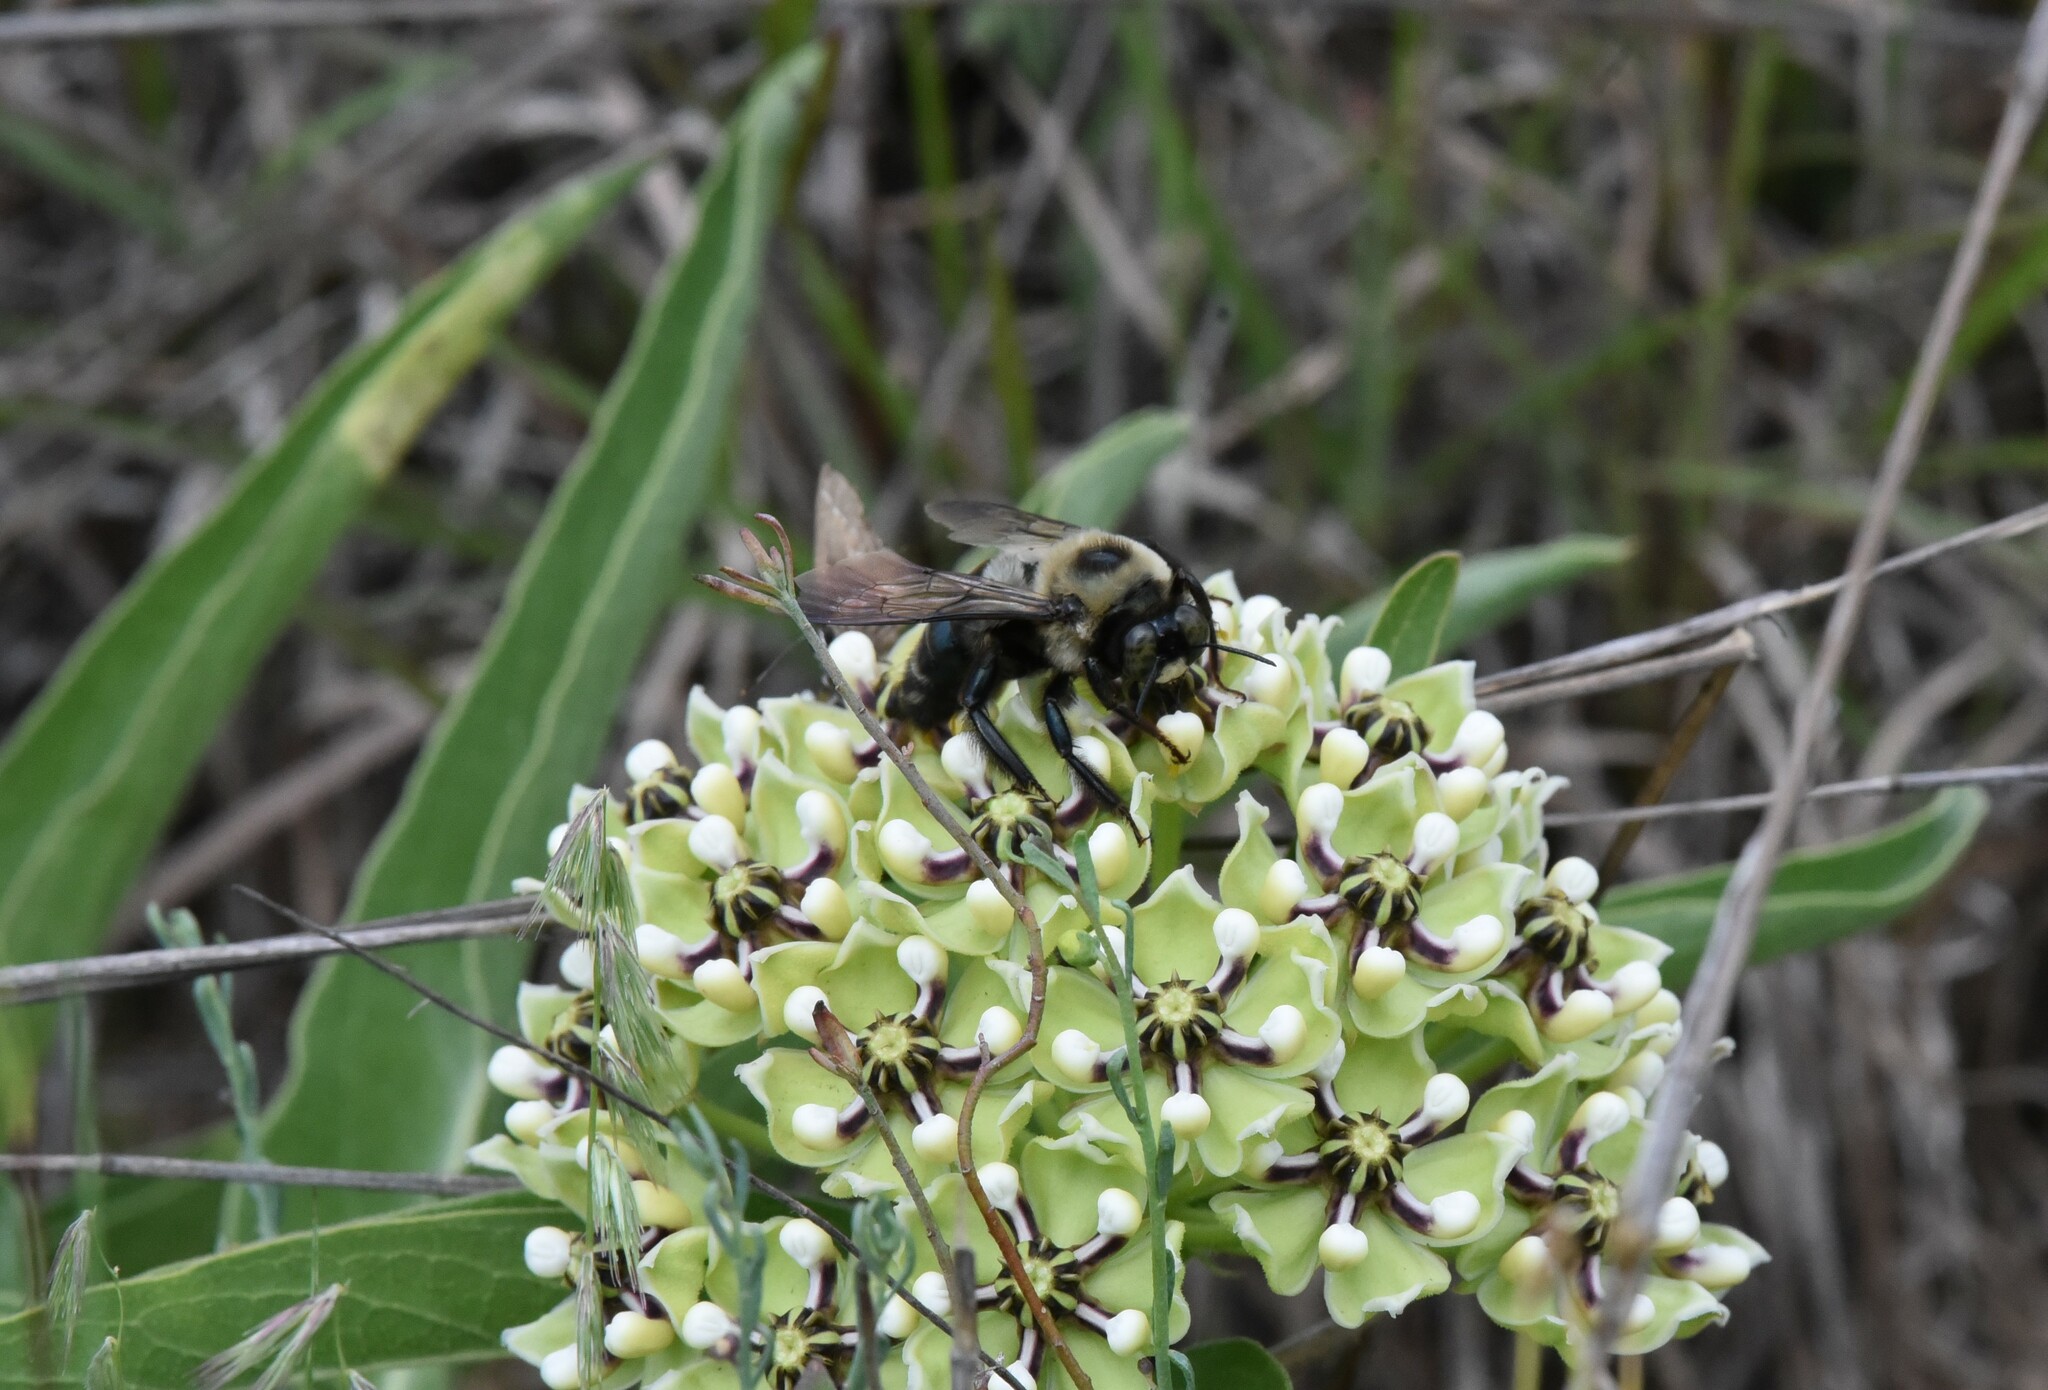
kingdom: Animalia
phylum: Arthropoda
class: Insecta
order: Hymenoptera
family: Apidae
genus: Xylocopa
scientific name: Xylocopa virginica
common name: Carpenter bee
